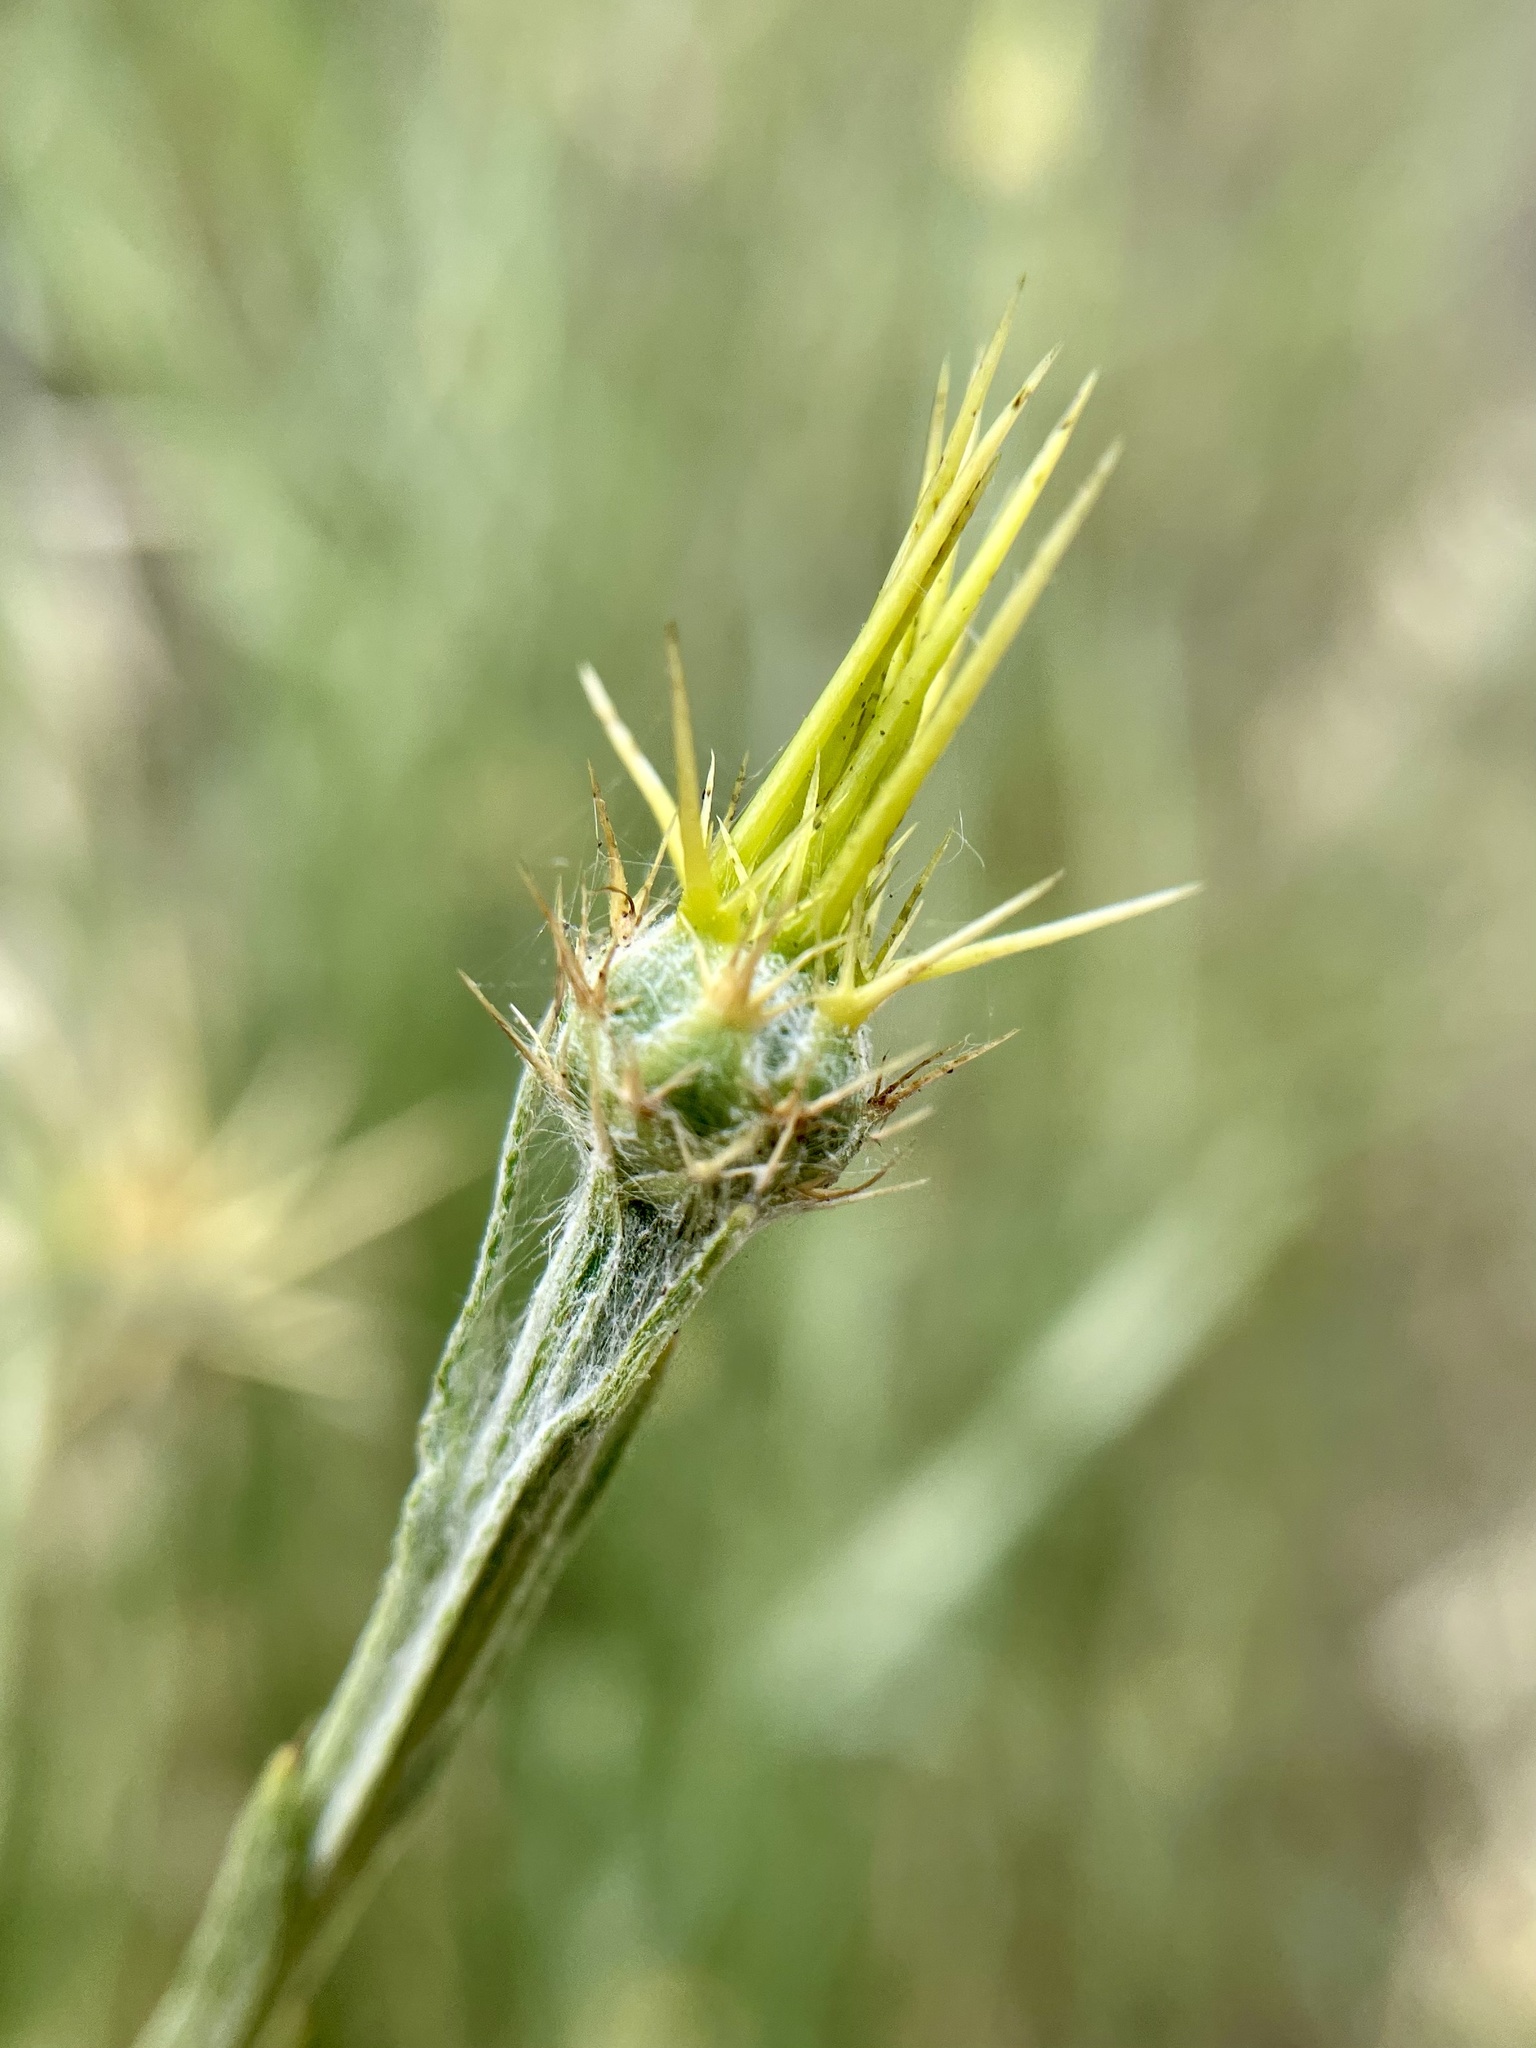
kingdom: Plantae
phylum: Tracheophyta
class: Magnoliopsida
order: Asterales
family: Asteraceae
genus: Centaurea
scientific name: Centaurea solstitialis
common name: Yellow star-thistle
